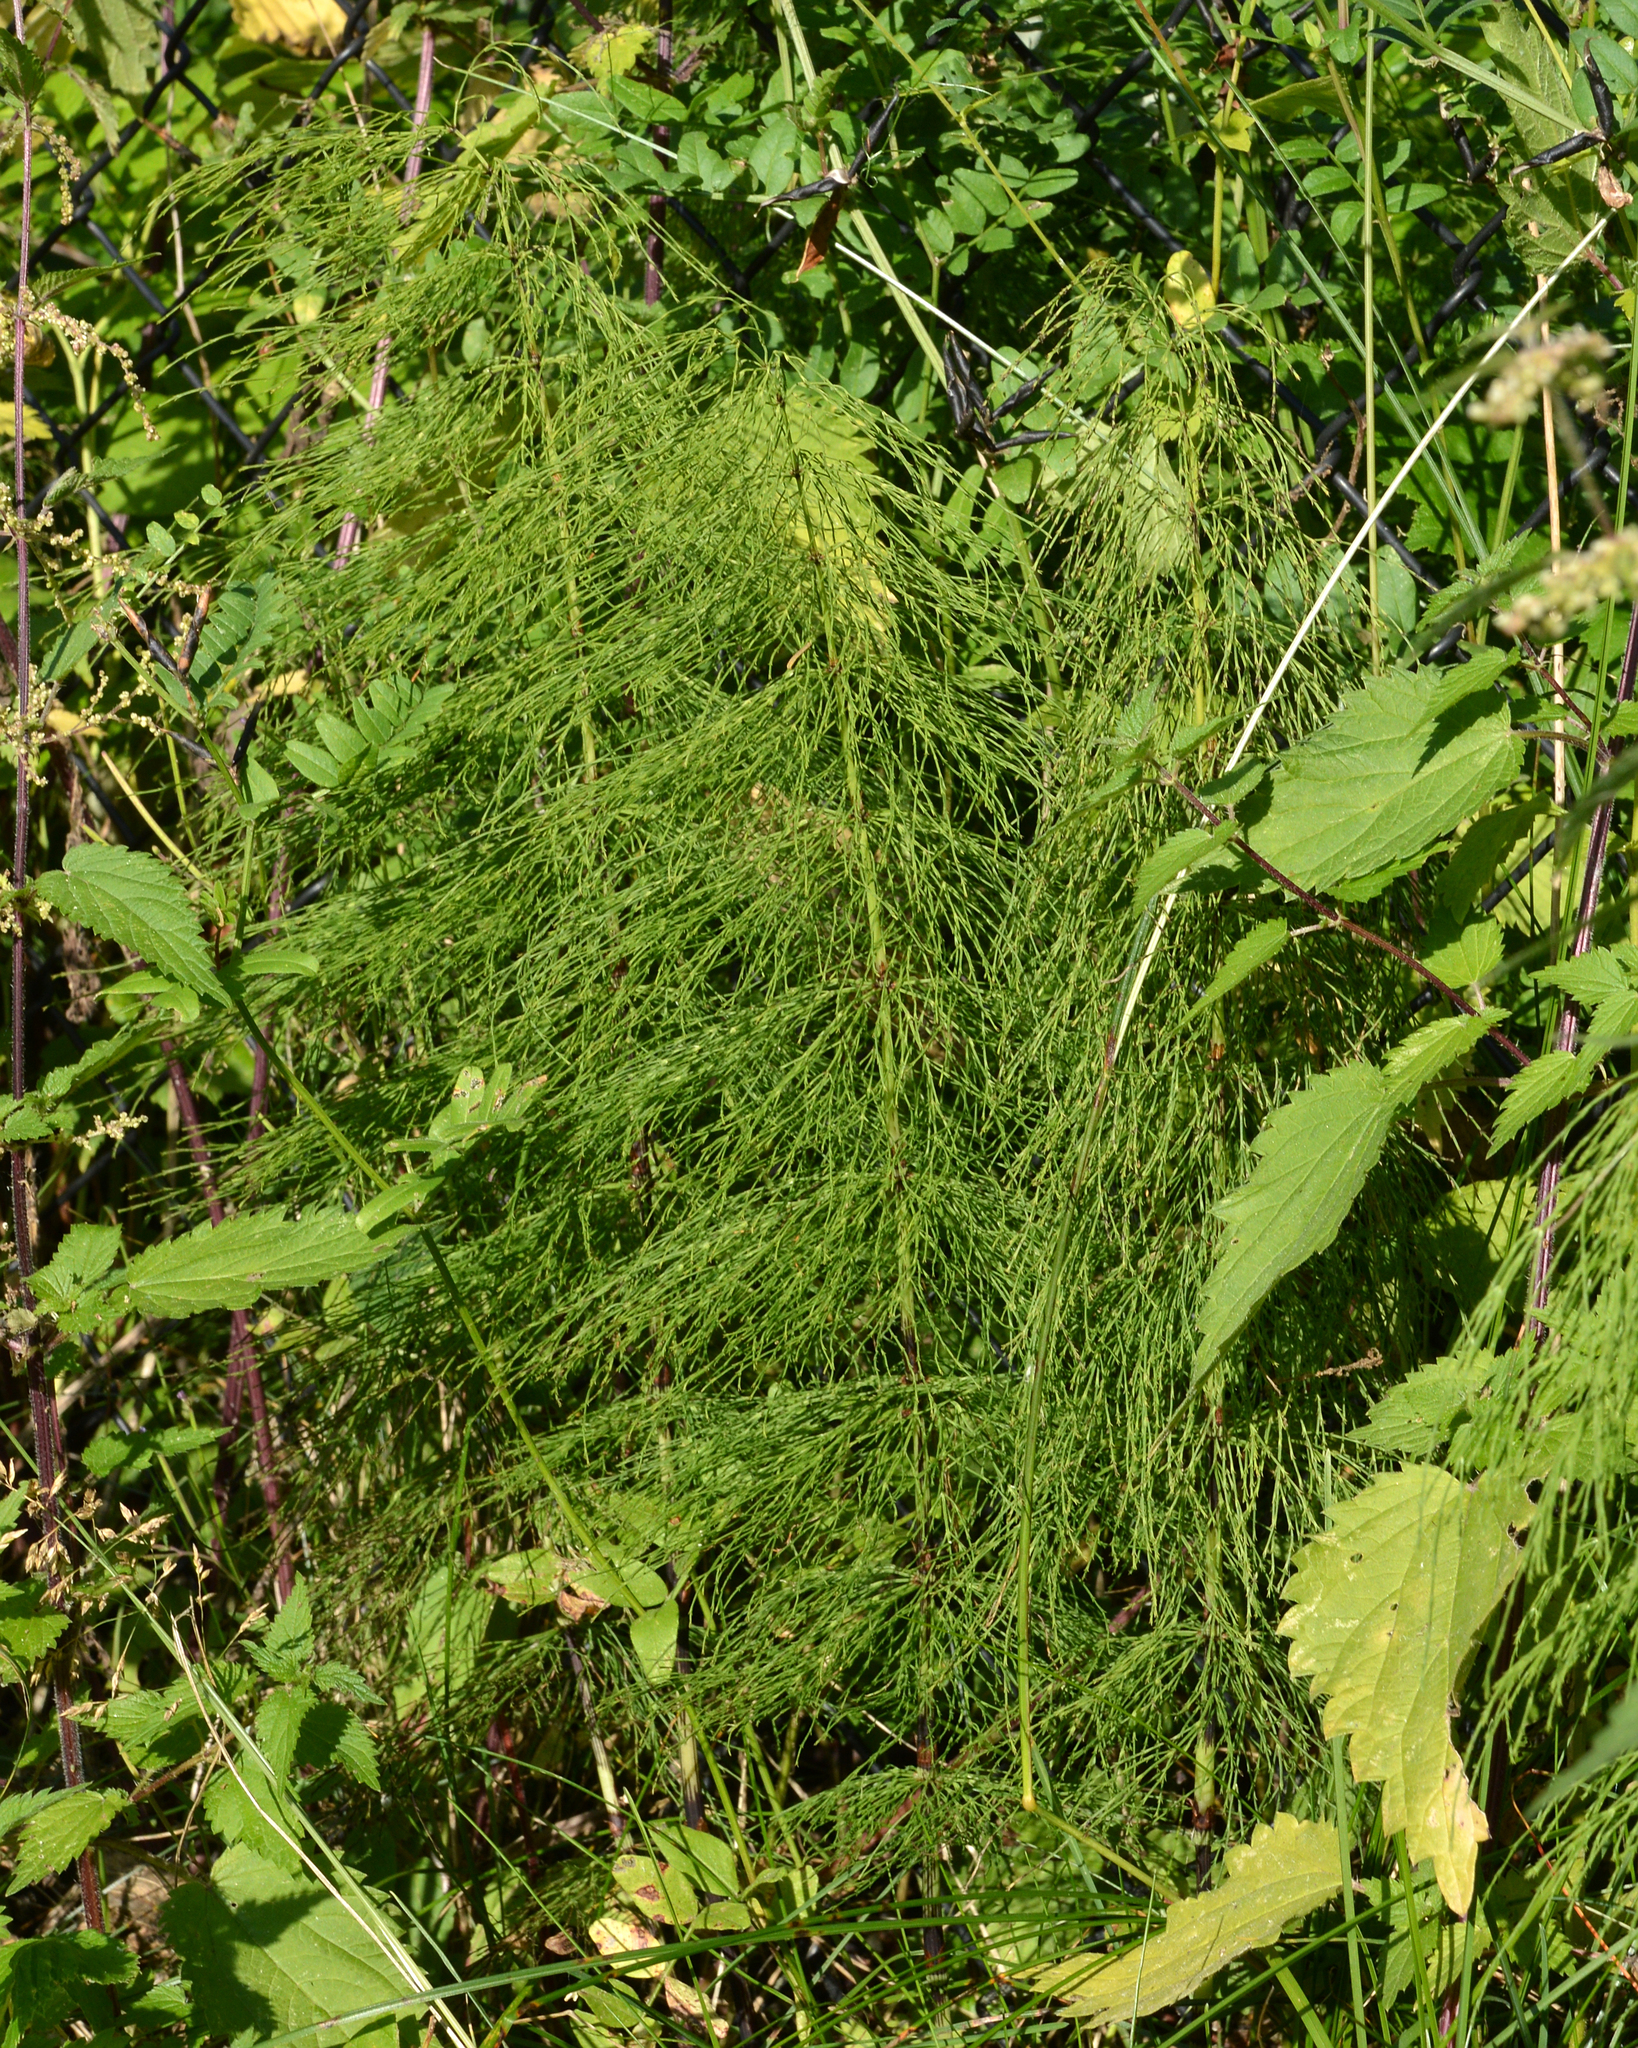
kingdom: Plantae
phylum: Tracheophyta
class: Polypodiopsida
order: Equisetales
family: Equisetaceae
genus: Equisetum
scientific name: Equisetum sylvaticum
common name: Wood horsetail
